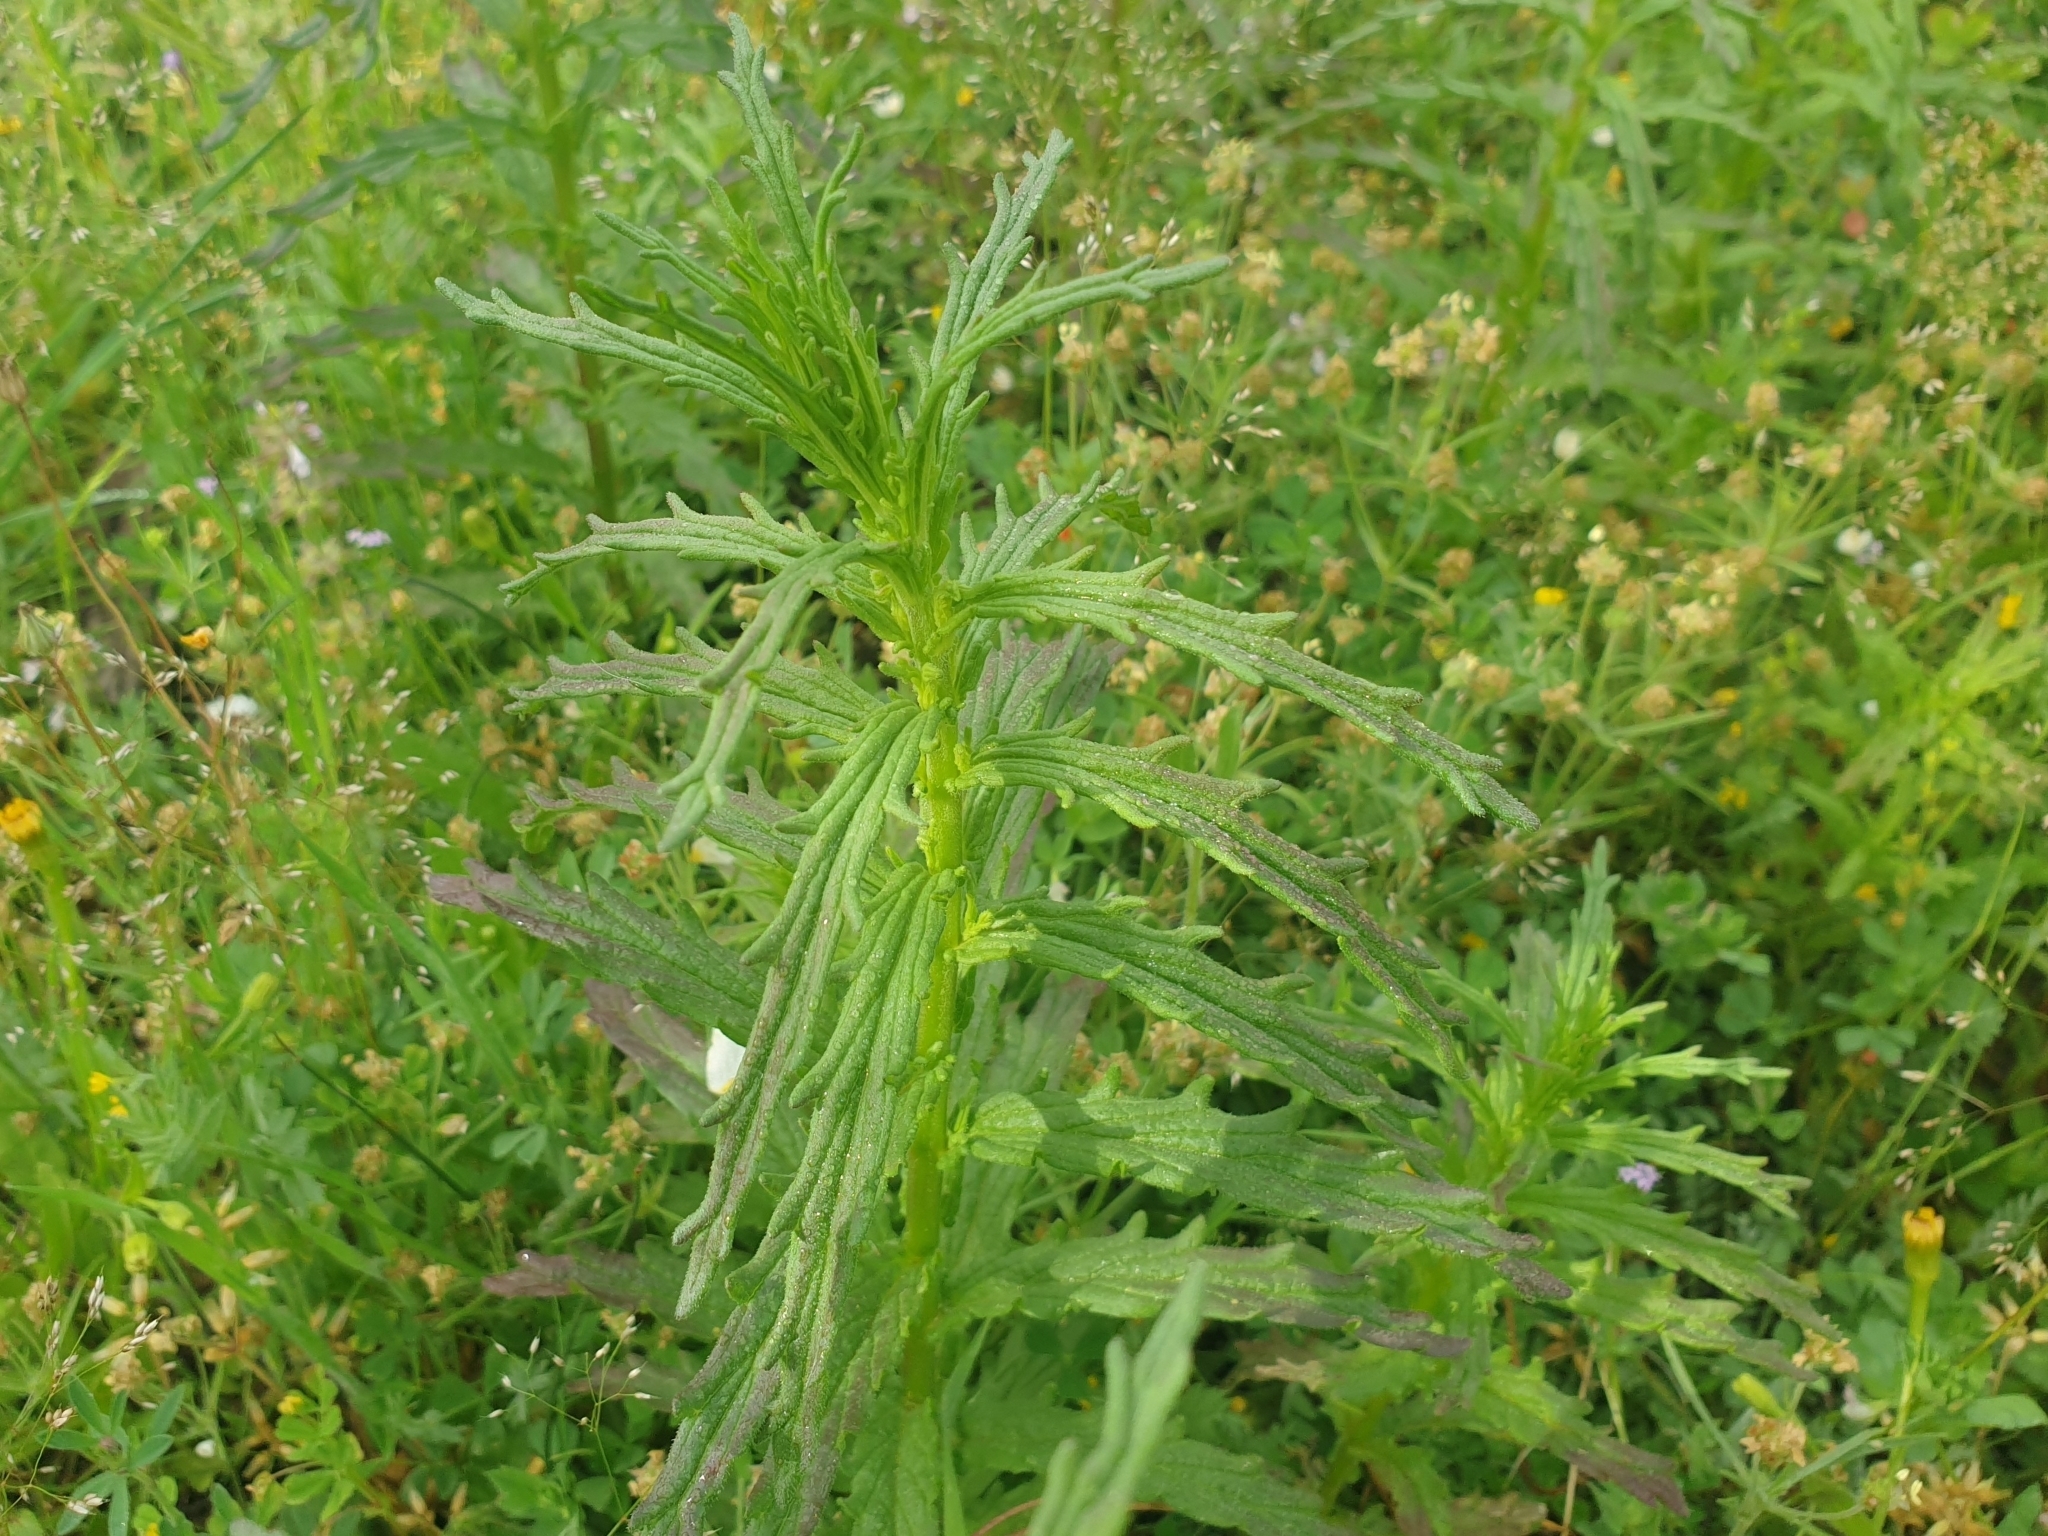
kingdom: Plantae
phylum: Tracheophyta
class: Magnoliopsida
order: Lamiales
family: Orobanchaceae
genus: Bellardia
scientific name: Bellardia trixago
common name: Mediterranean lineseed
